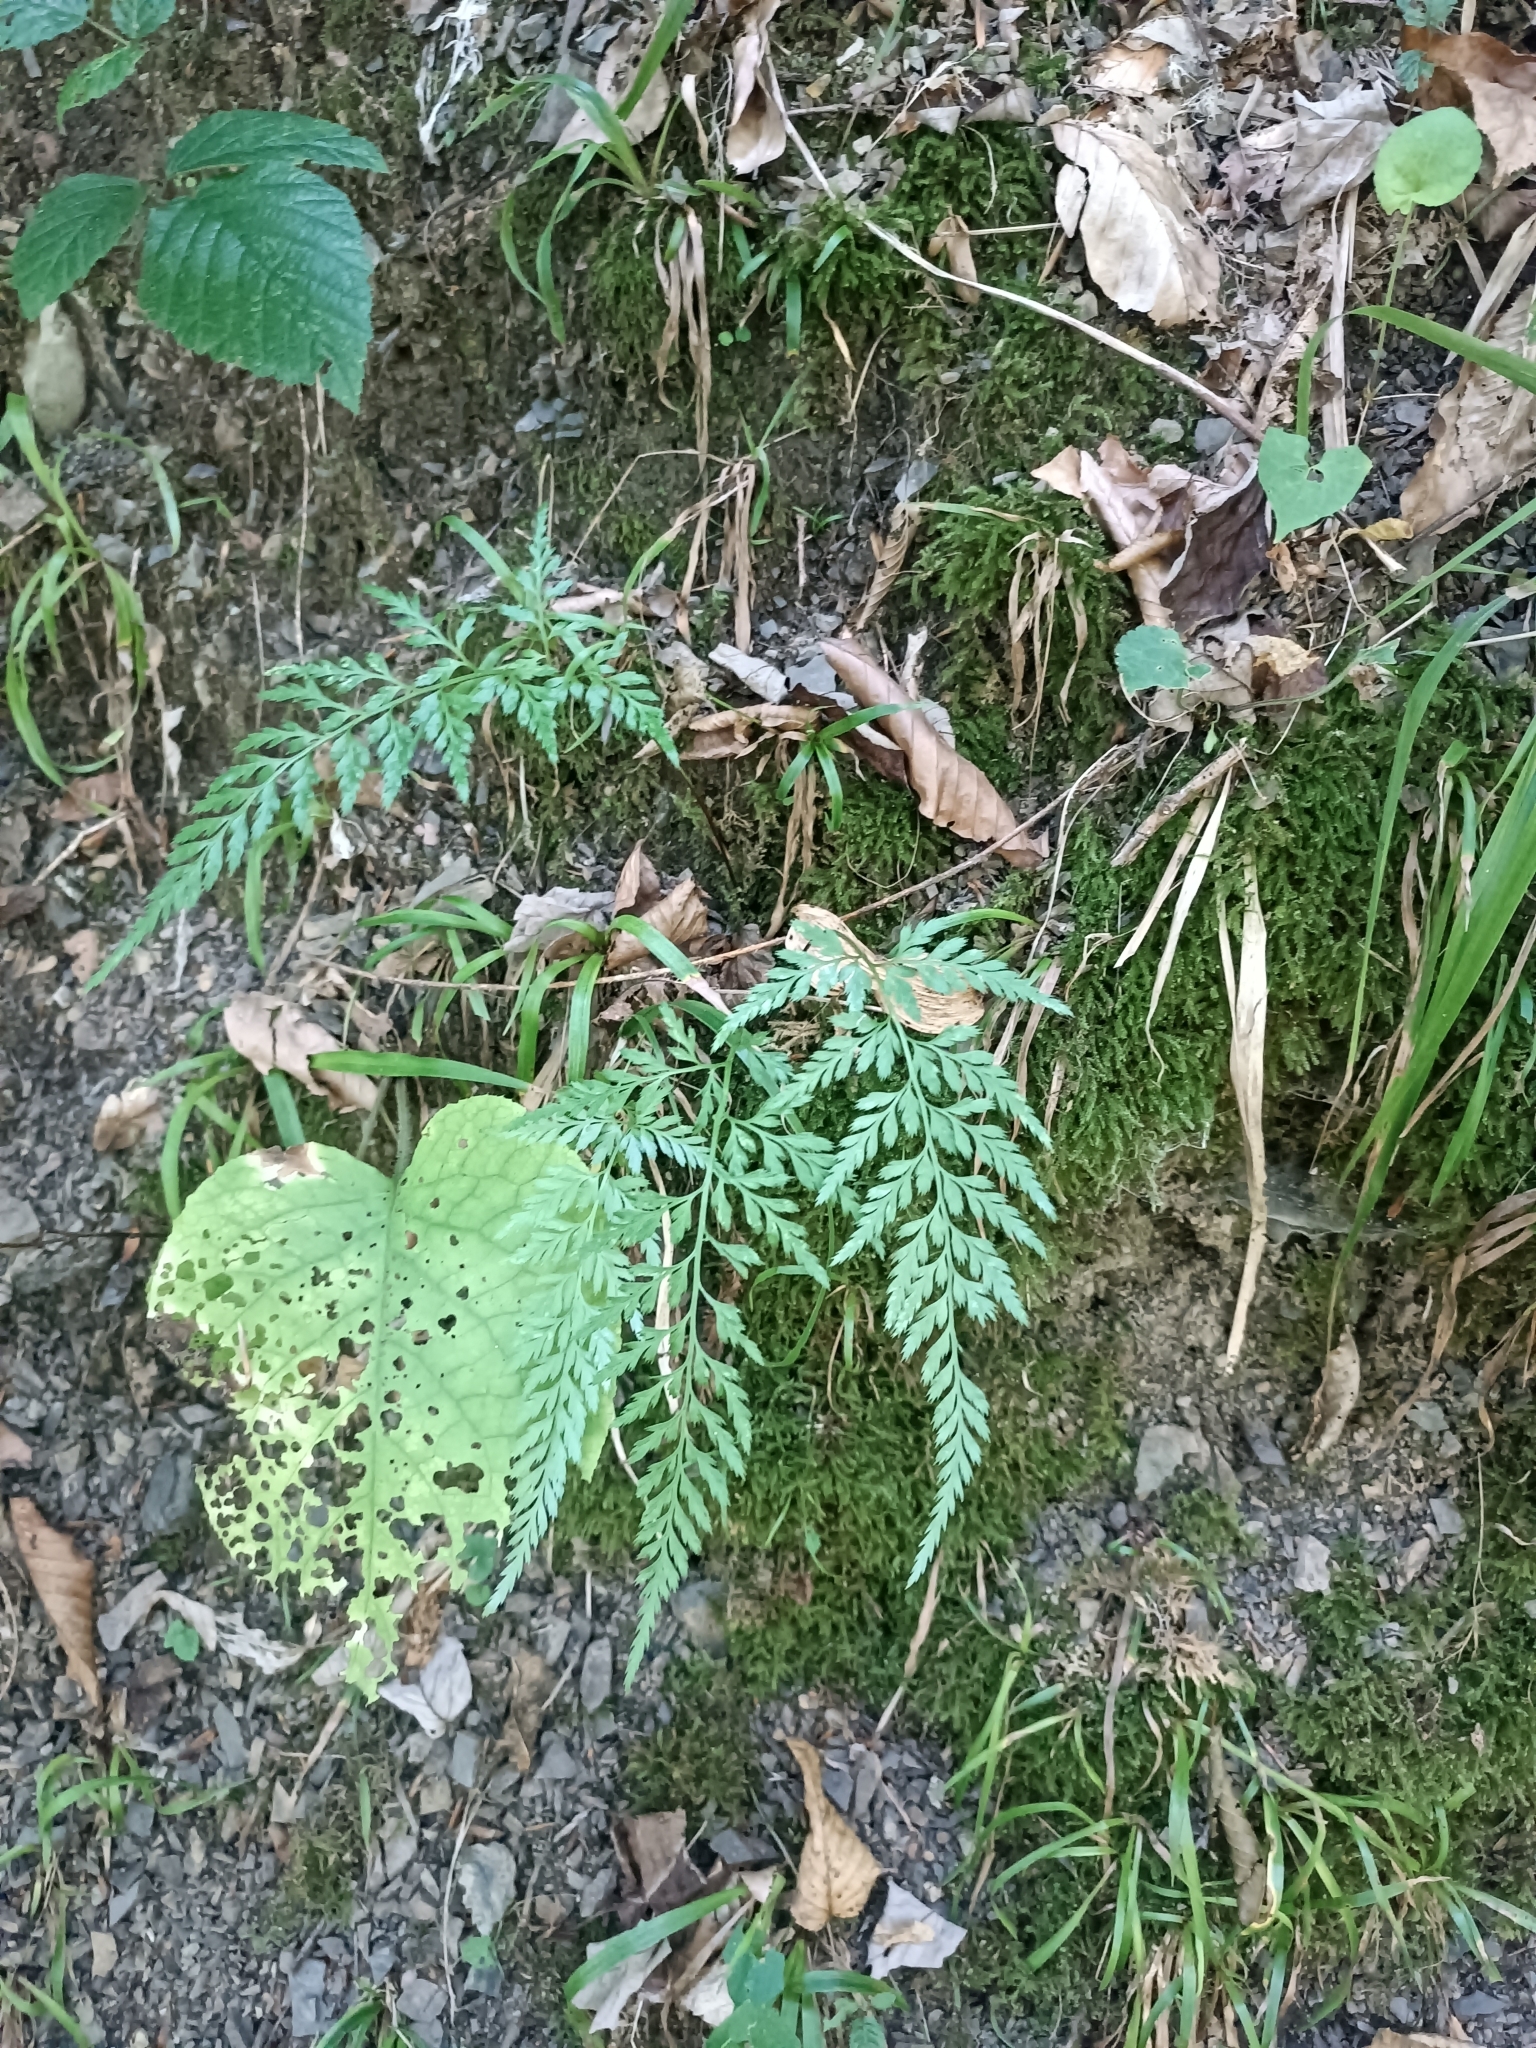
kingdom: Plantae
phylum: Tracheophyta
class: Polypodiopsida
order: Polypodiales
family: Aspleniaceae
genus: Asplenium
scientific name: Asplenium adiantum-nigrum
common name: Black spleenwort
